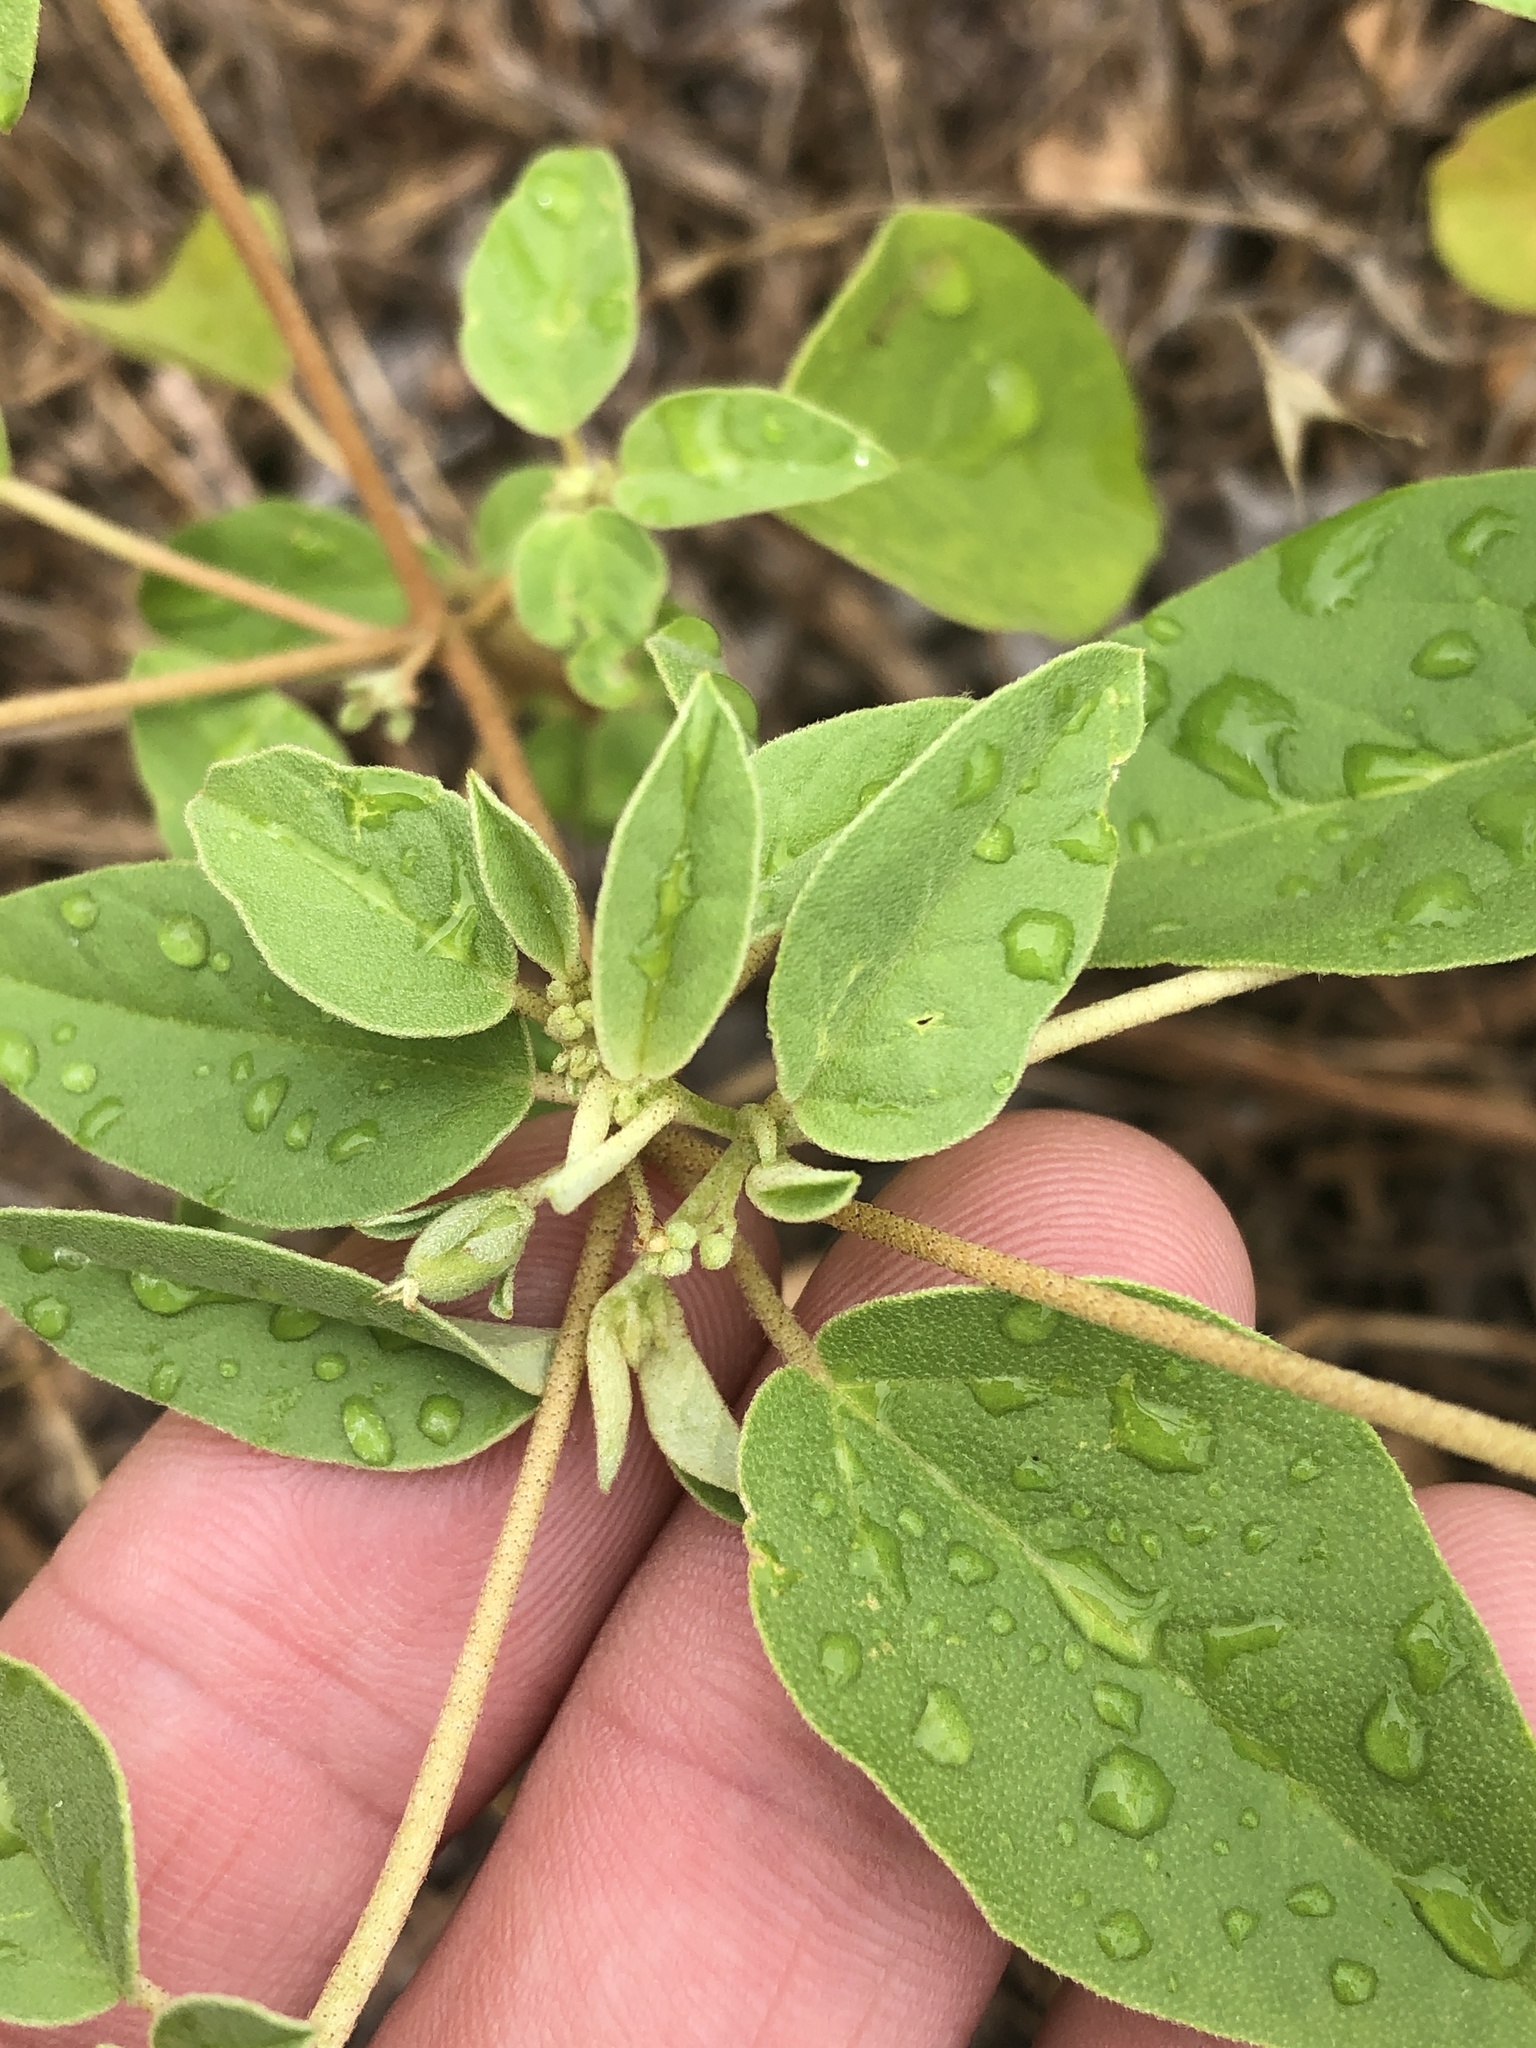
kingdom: Plantae
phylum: Tracheophyta
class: Magnoliopsida
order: Malpighiales
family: Euphorbiaceae
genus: Croton
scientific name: Croton monanthogynus
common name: One-seed croton
